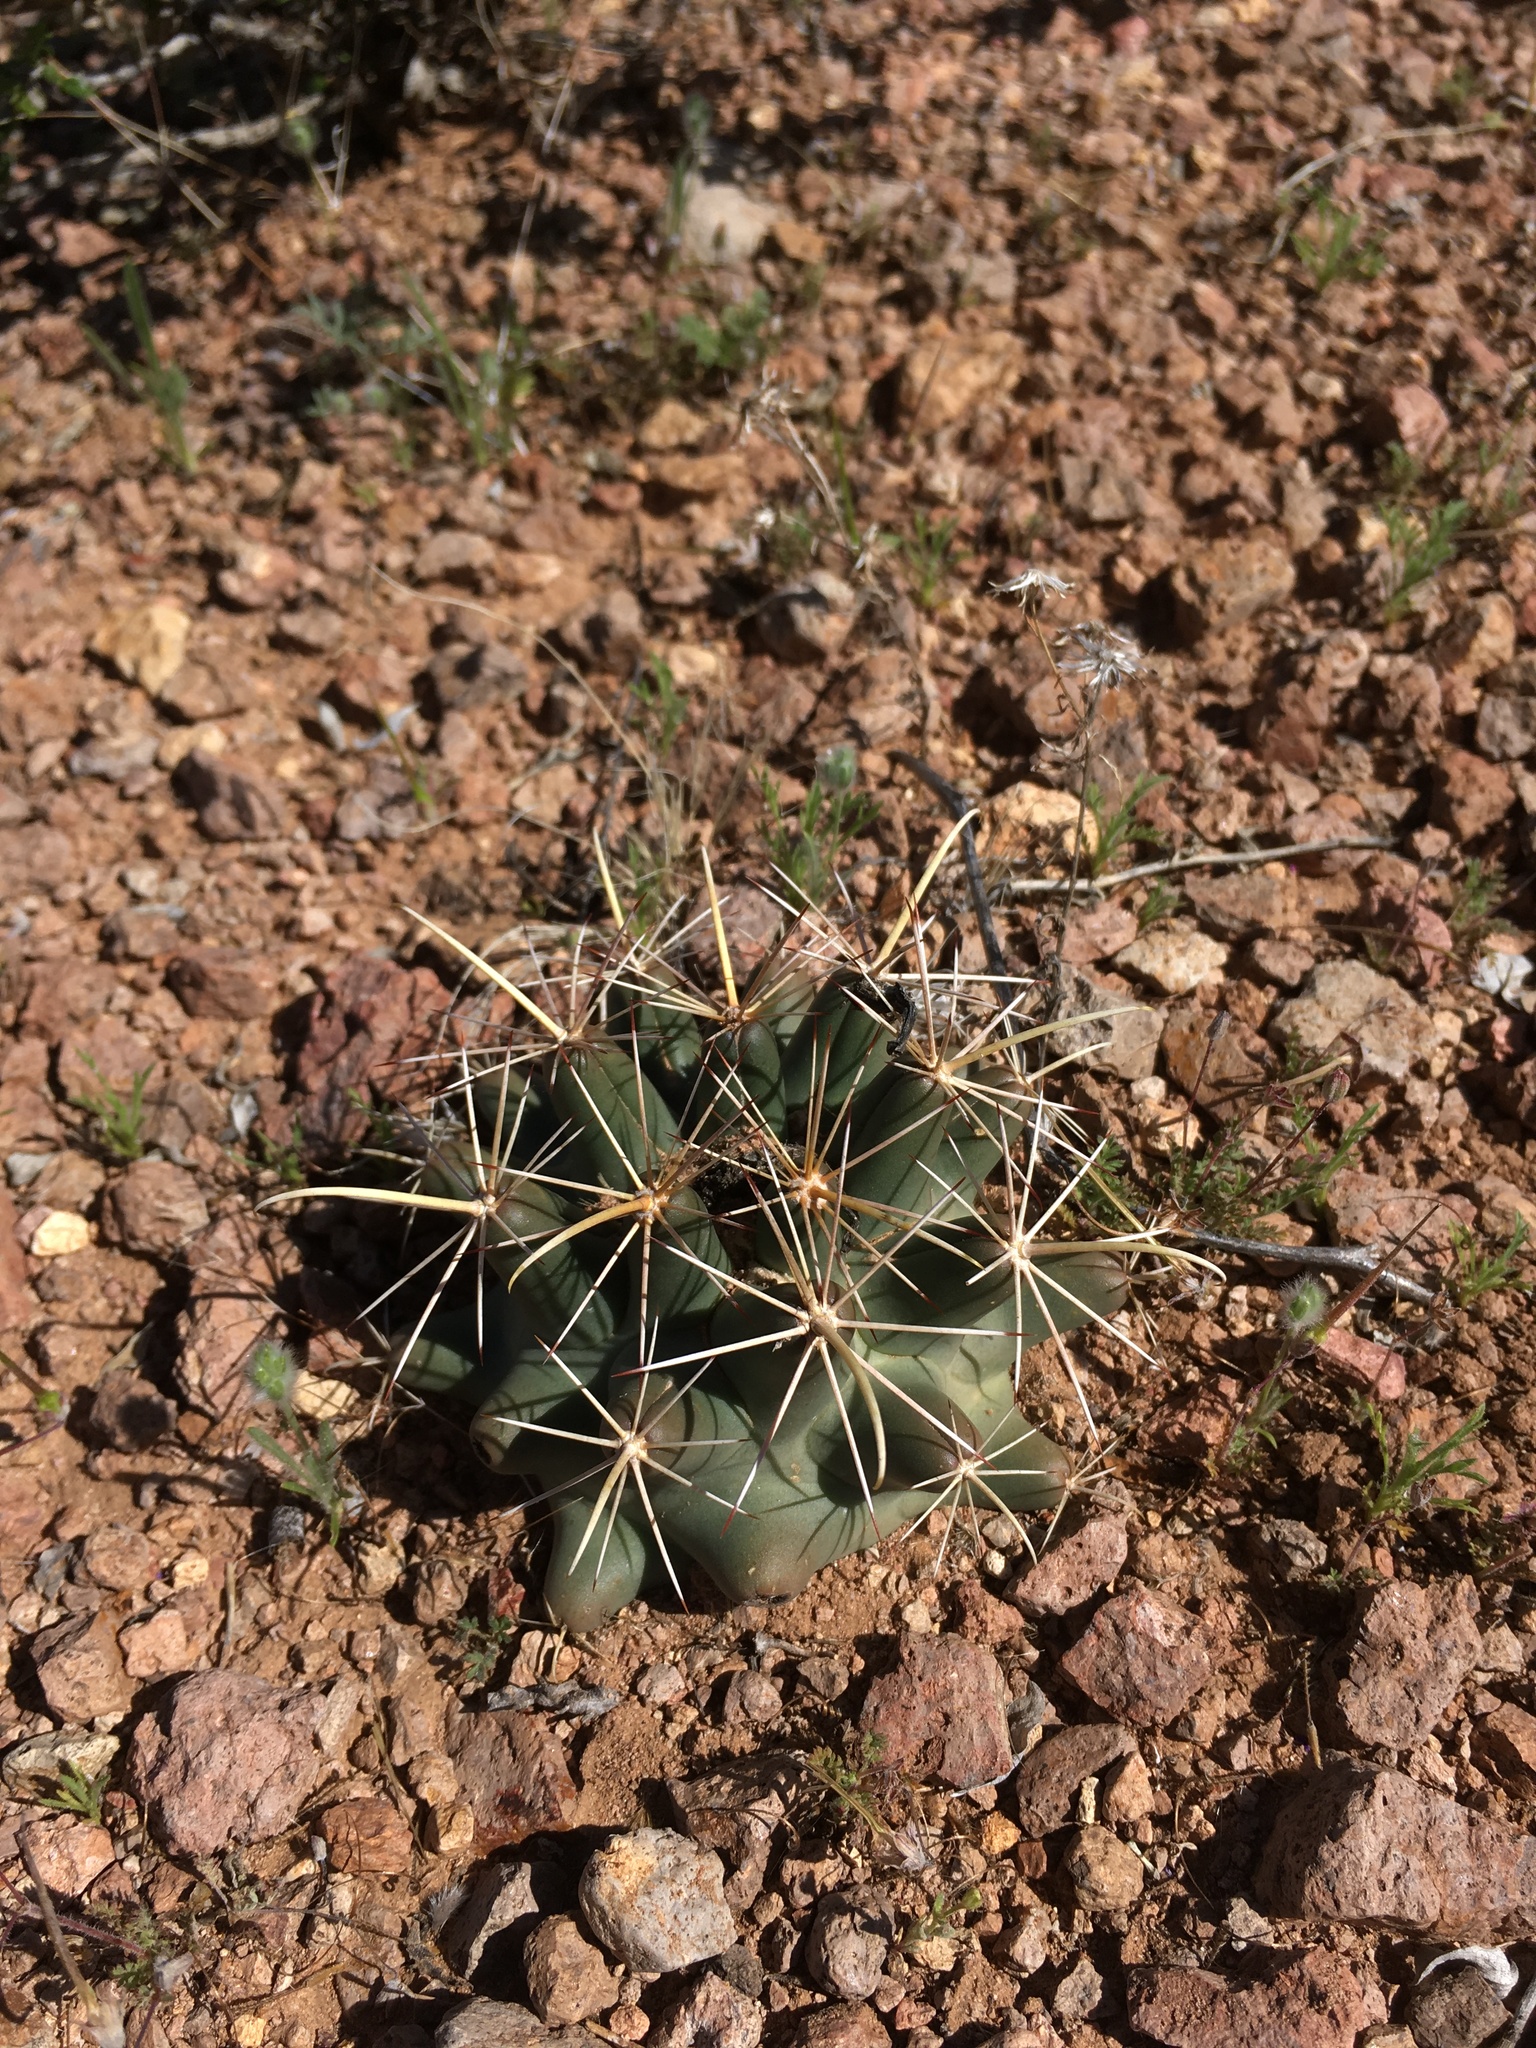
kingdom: Plantae
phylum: Tracheophyta
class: Magnoliopsida
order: Caryophyllales
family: Cactaceae
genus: Coryphantha
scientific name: Coryphantha robustispina
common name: Pima pineapple cactus
